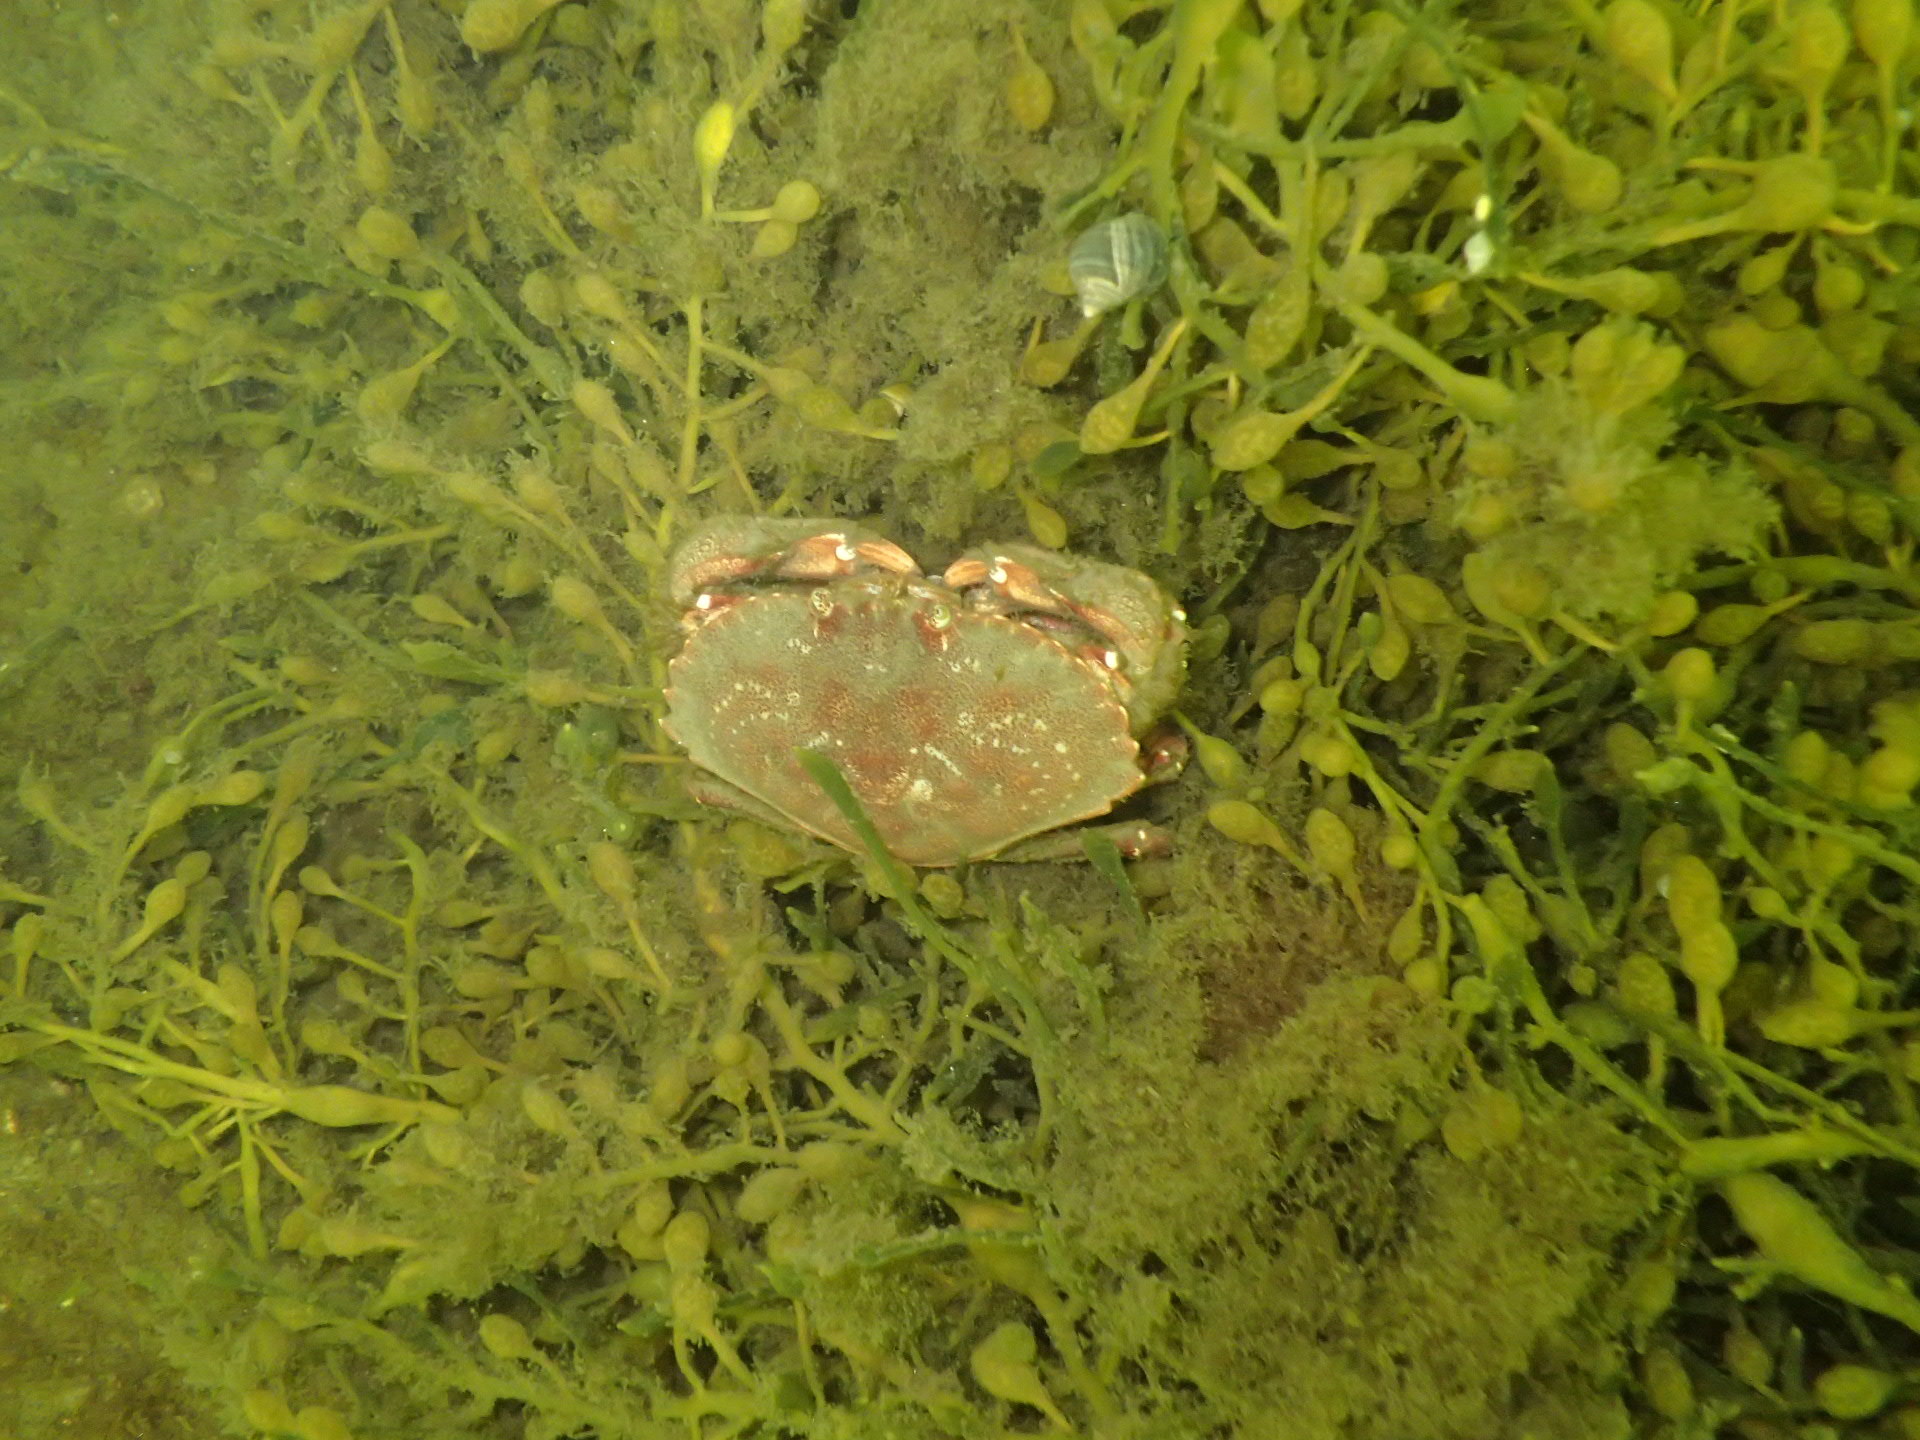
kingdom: Animalia
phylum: Arthropoda
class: Malacostraca
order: Decapoda
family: Cancridae
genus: Cancer
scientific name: Cancer irroratus
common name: Atlantic rock crab
